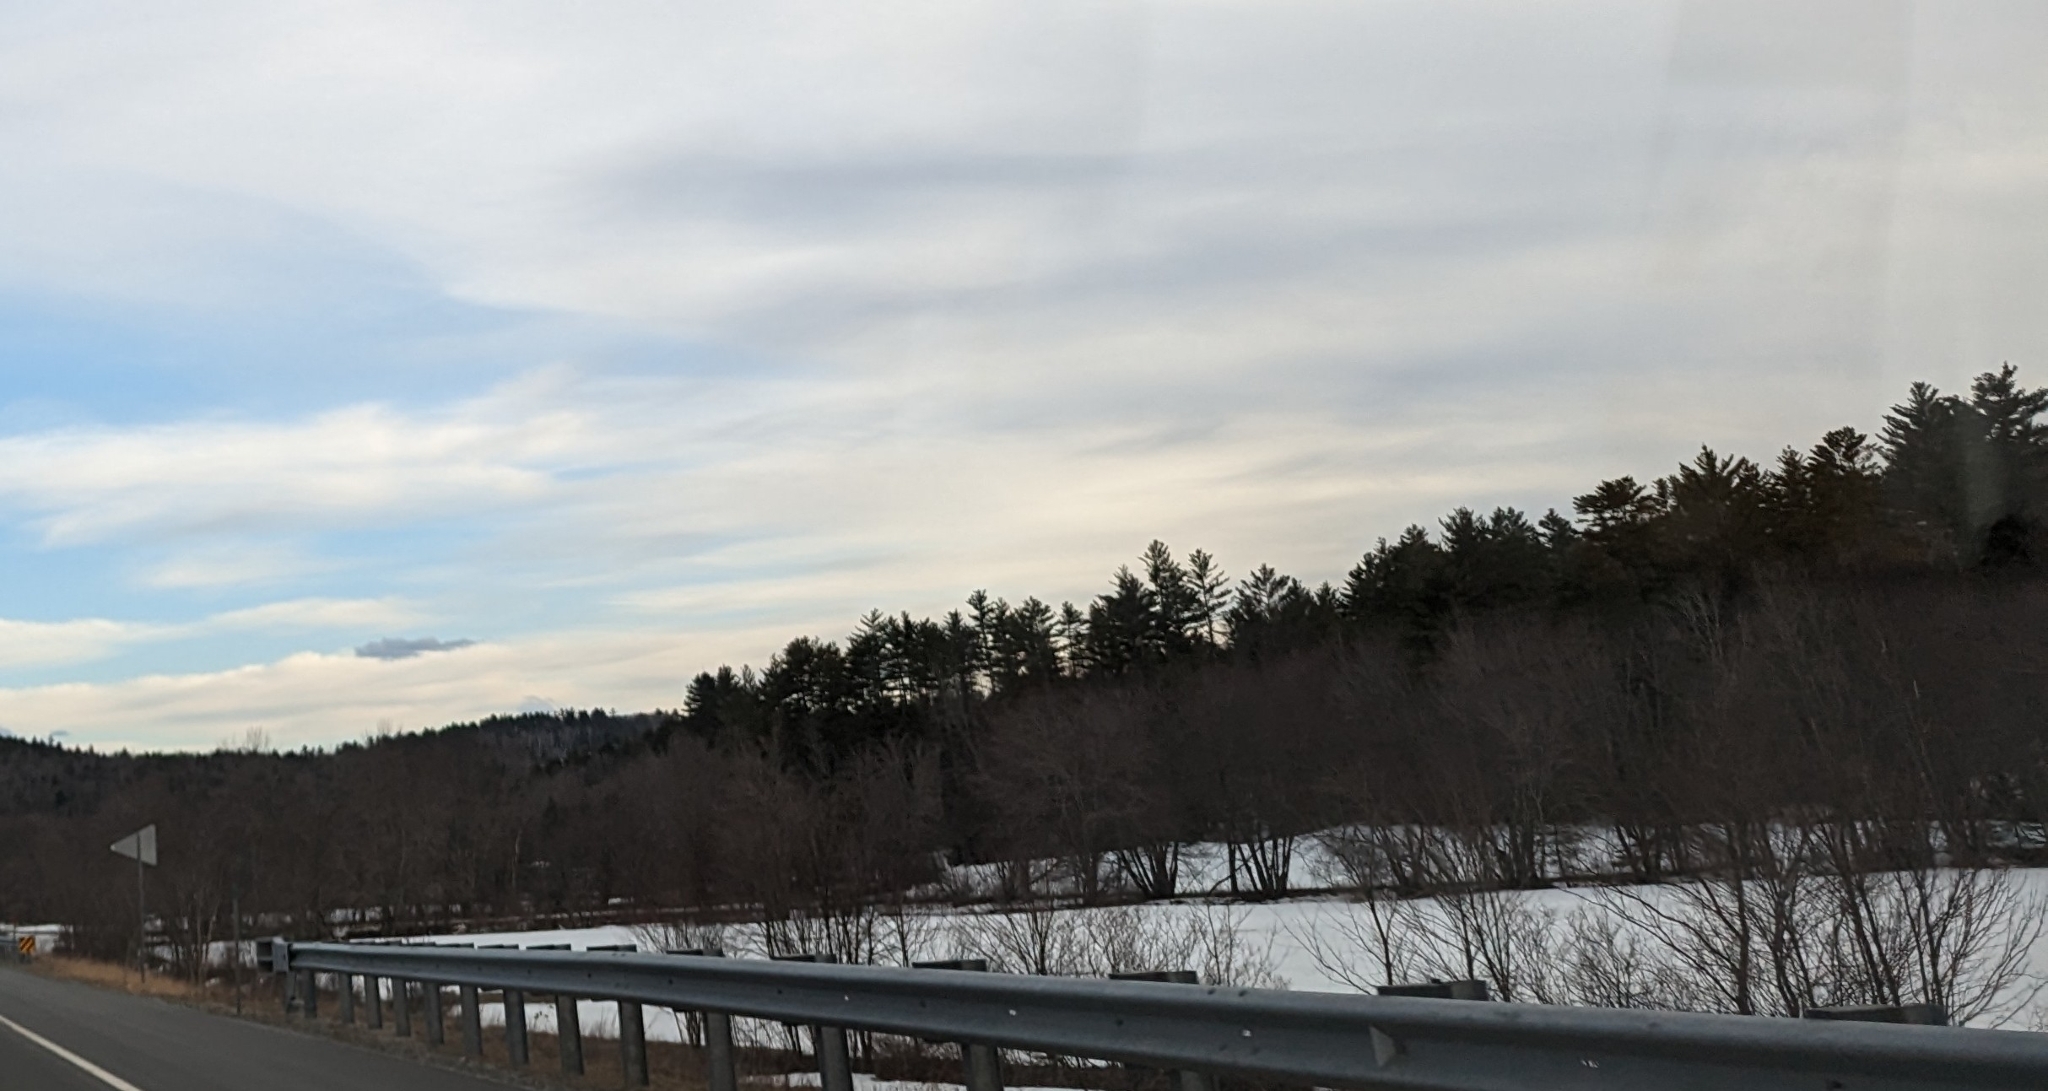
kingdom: Plantae
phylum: Tracheophyta
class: Pinopsida
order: Pinales
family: Pinaceae
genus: Pinus
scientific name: Pinus strobus
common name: Weymouth pine
